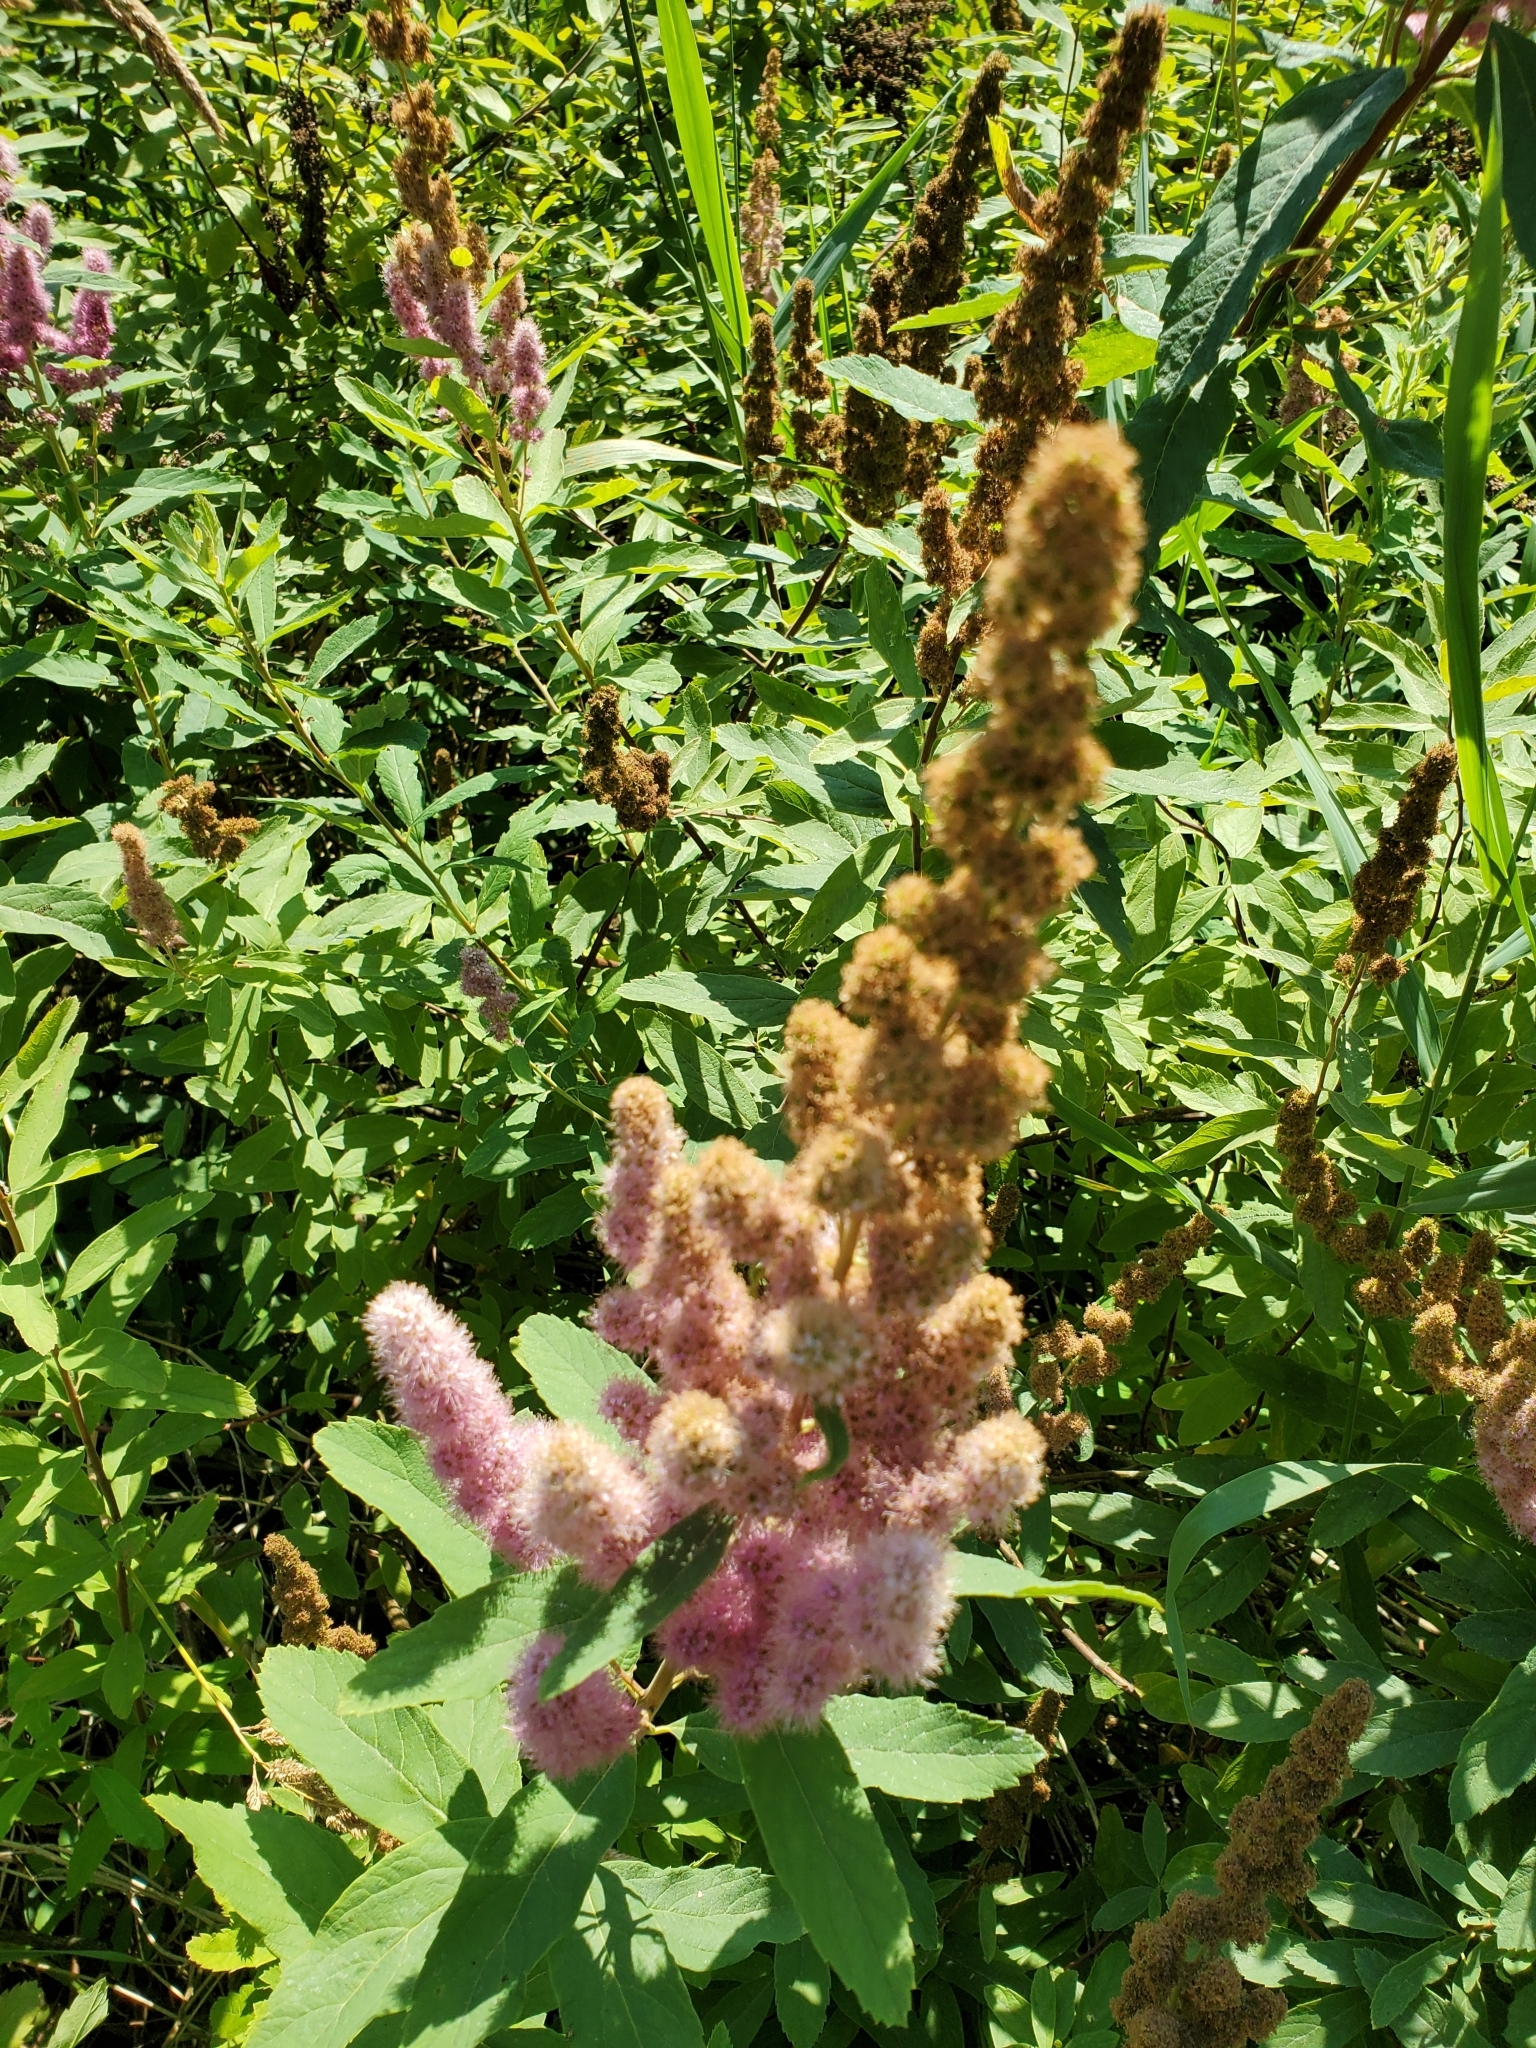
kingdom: Plantae
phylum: Tracheophyta
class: Magnoliopsida
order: Rosales
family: Rosaceae
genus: Spiraea
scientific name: Spiraea douglasii
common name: Steeplebush
